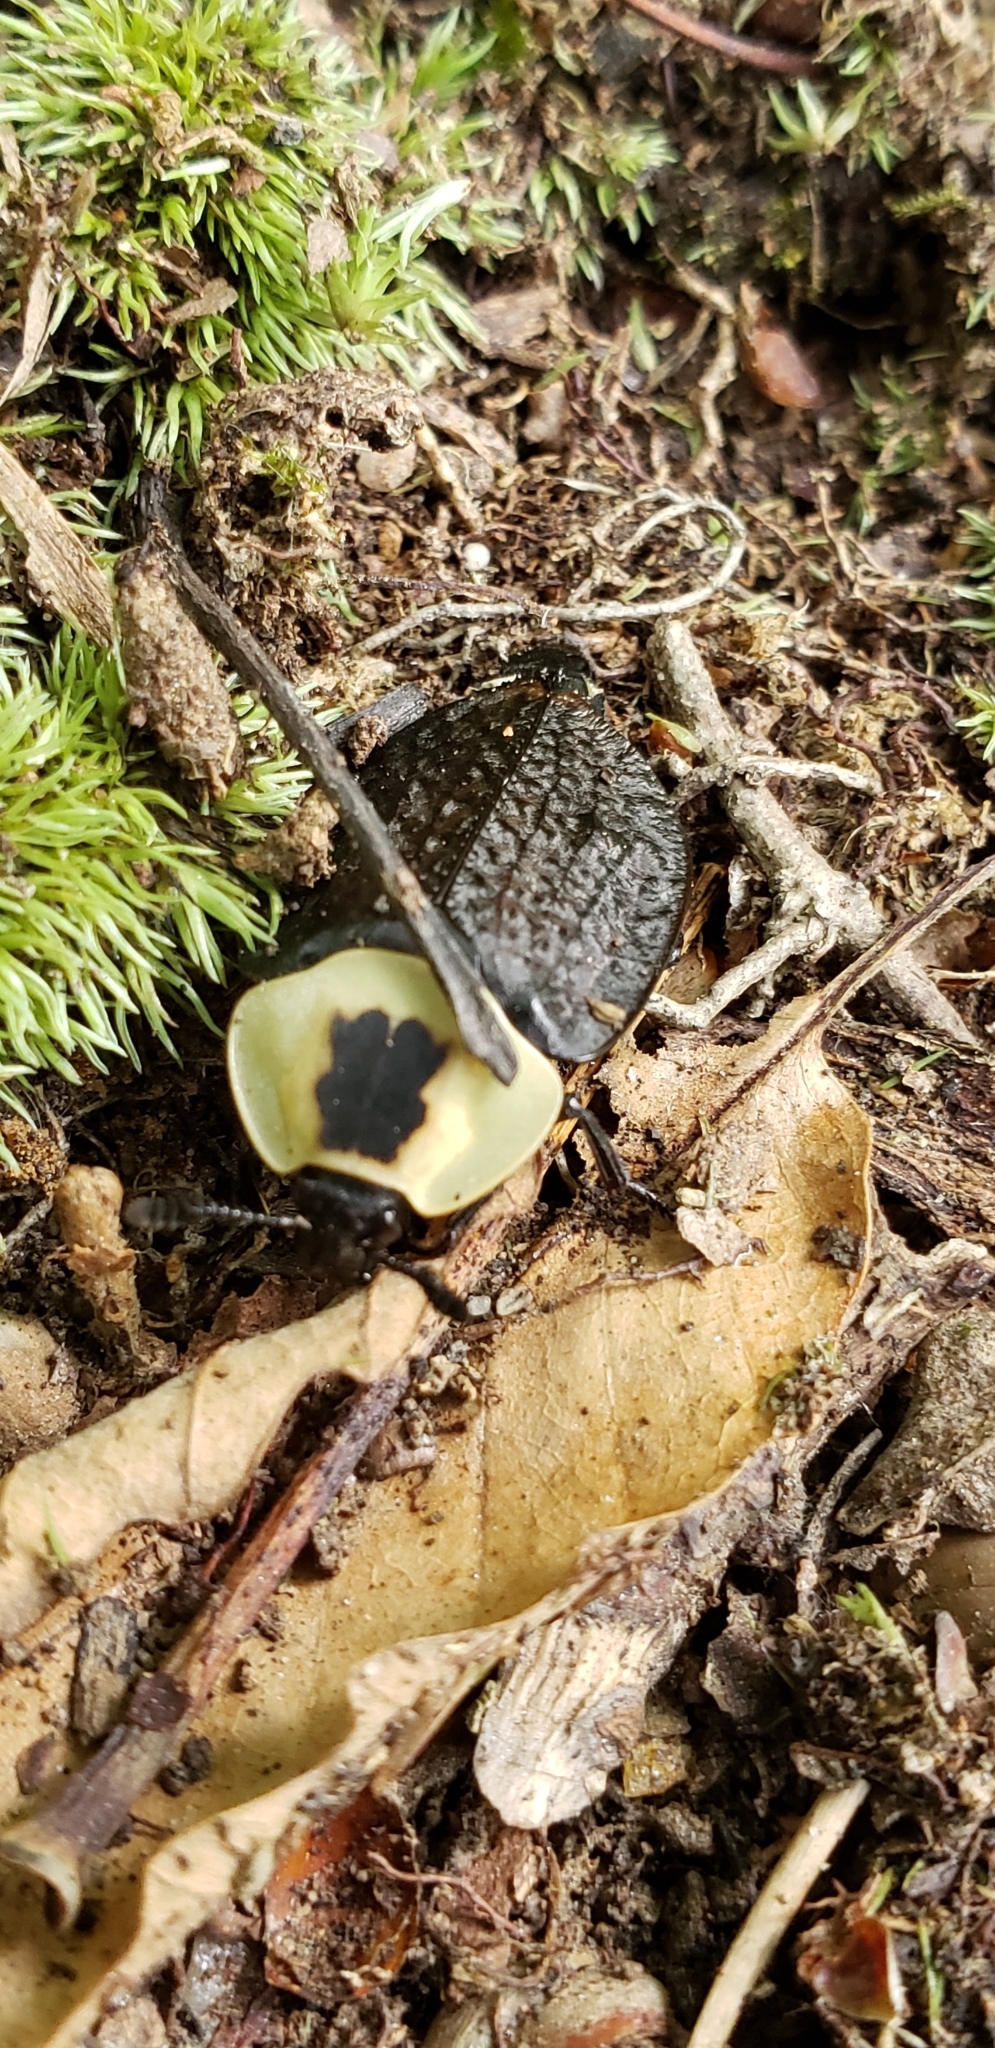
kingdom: Animalia
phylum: Arthropoda
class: Insecta
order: Coleoptera
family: Staphylinidae
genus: Necrophila
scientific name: Necrophila americana
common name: American carrion beetle
